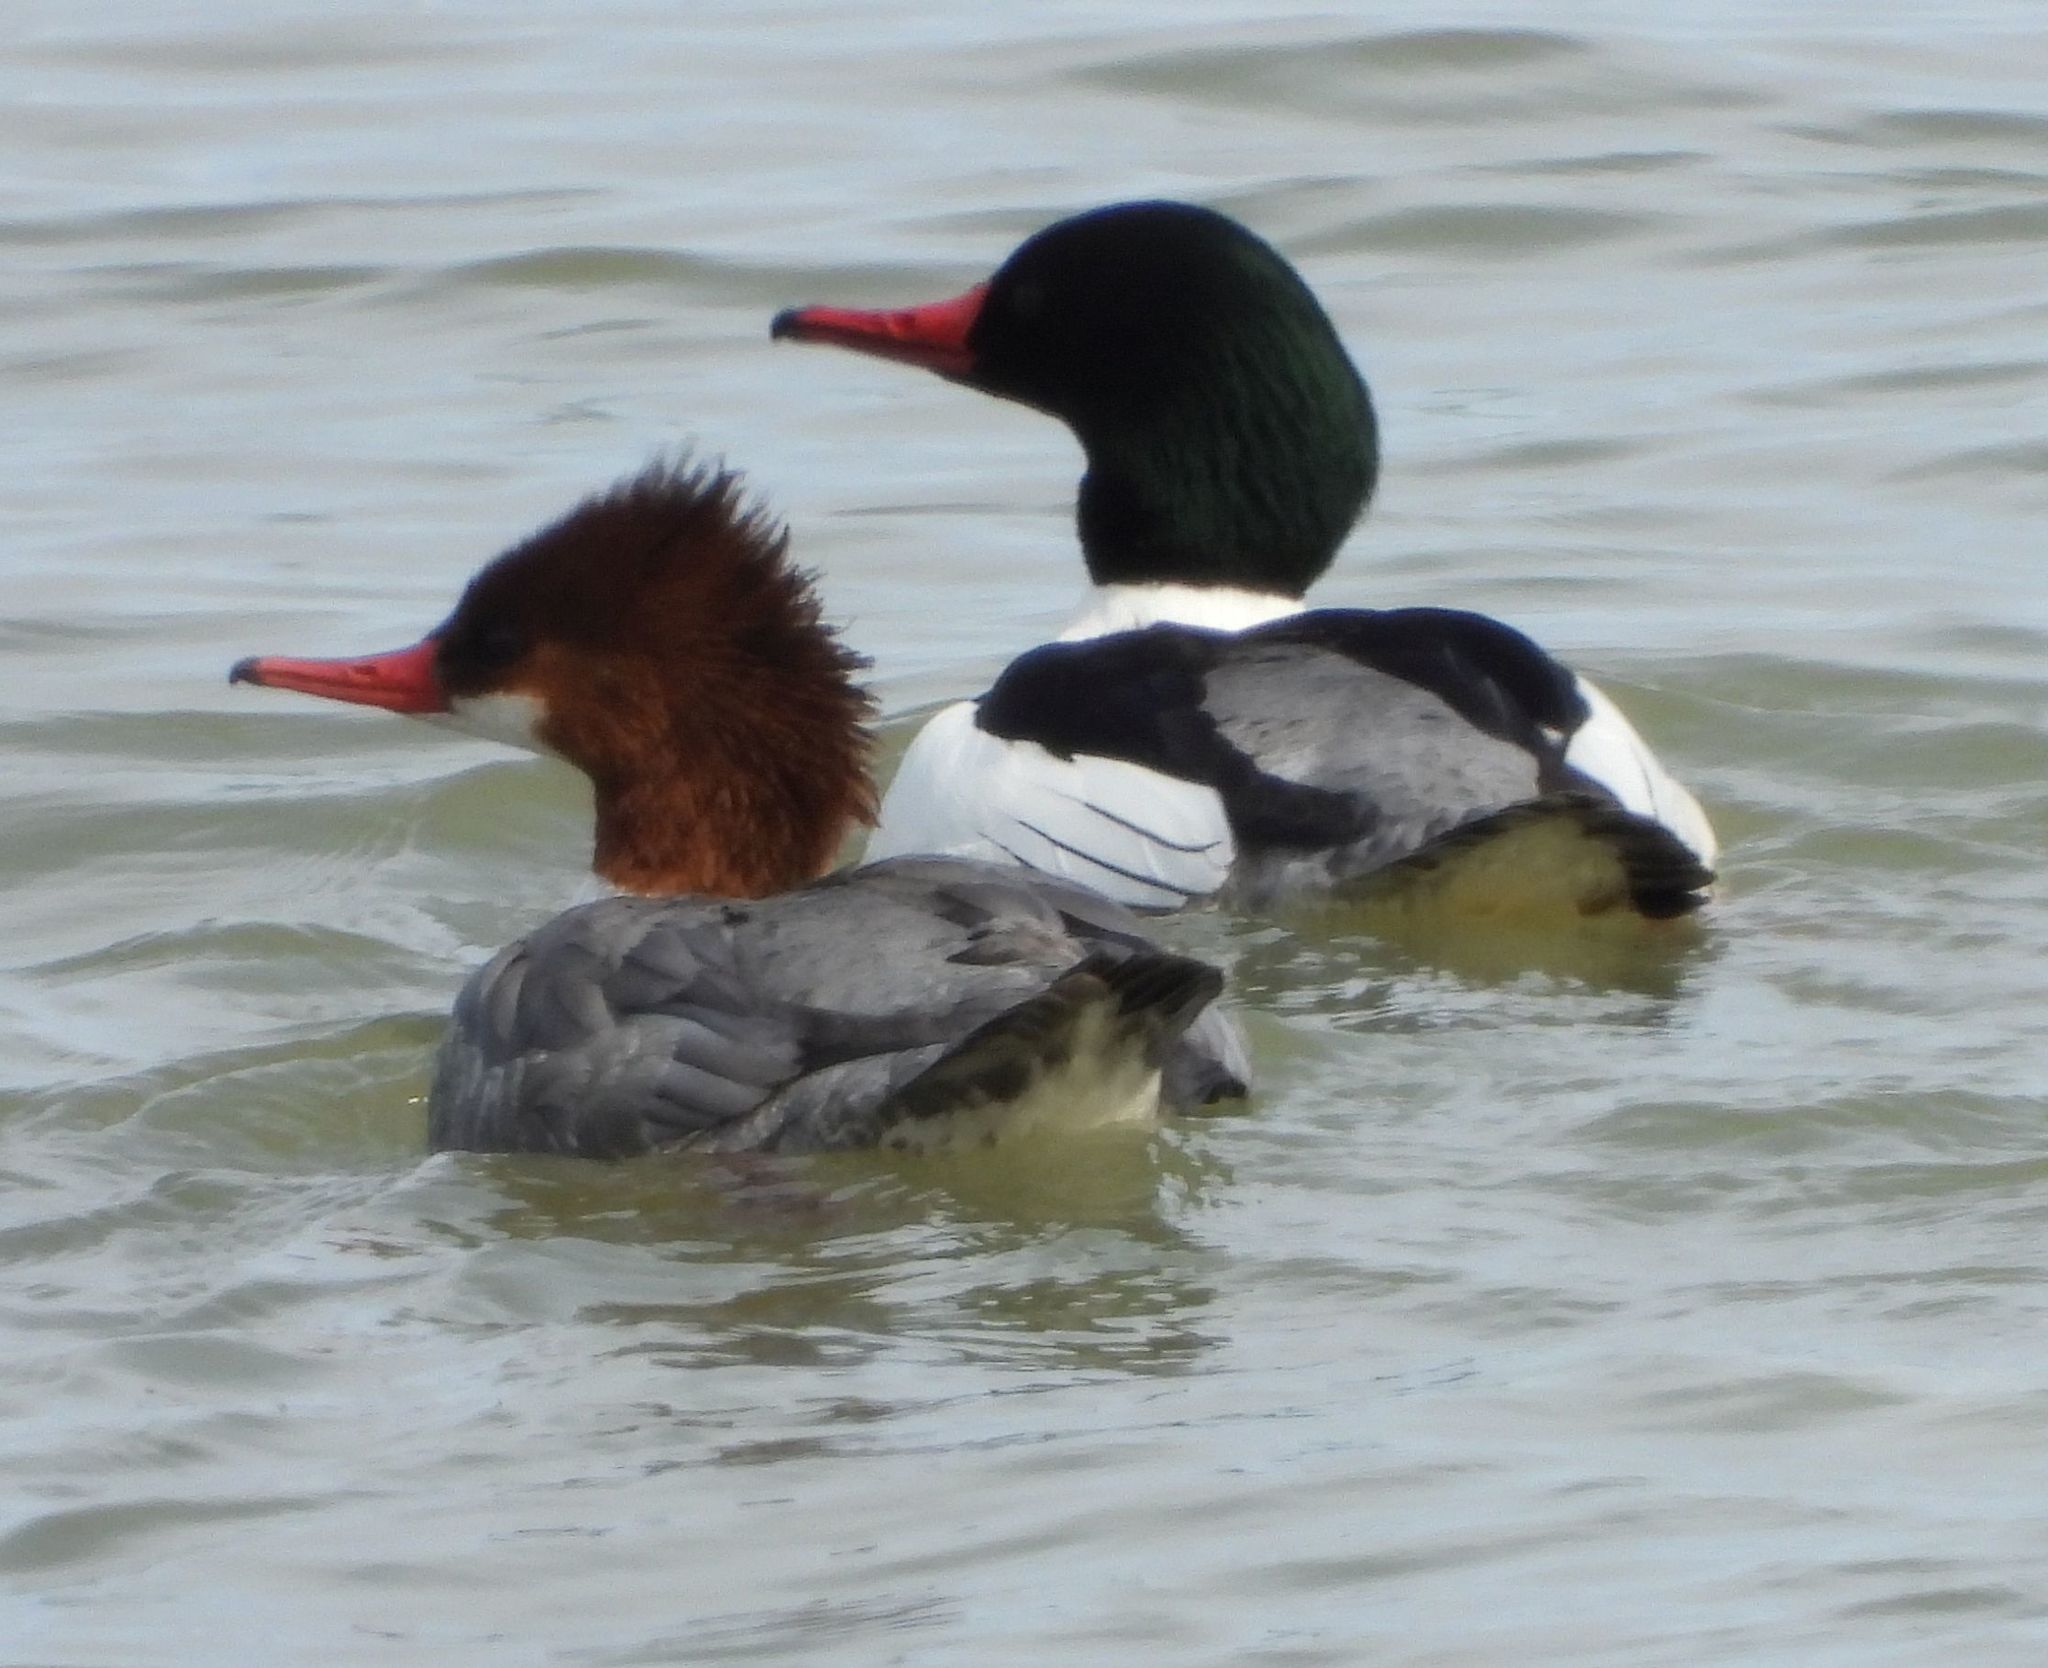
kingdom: Animalia
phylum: Chordata
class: Aves
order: Anseriformes
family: Anatidae
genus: Mergus
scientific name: Mergus merganser
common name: Common merganser
